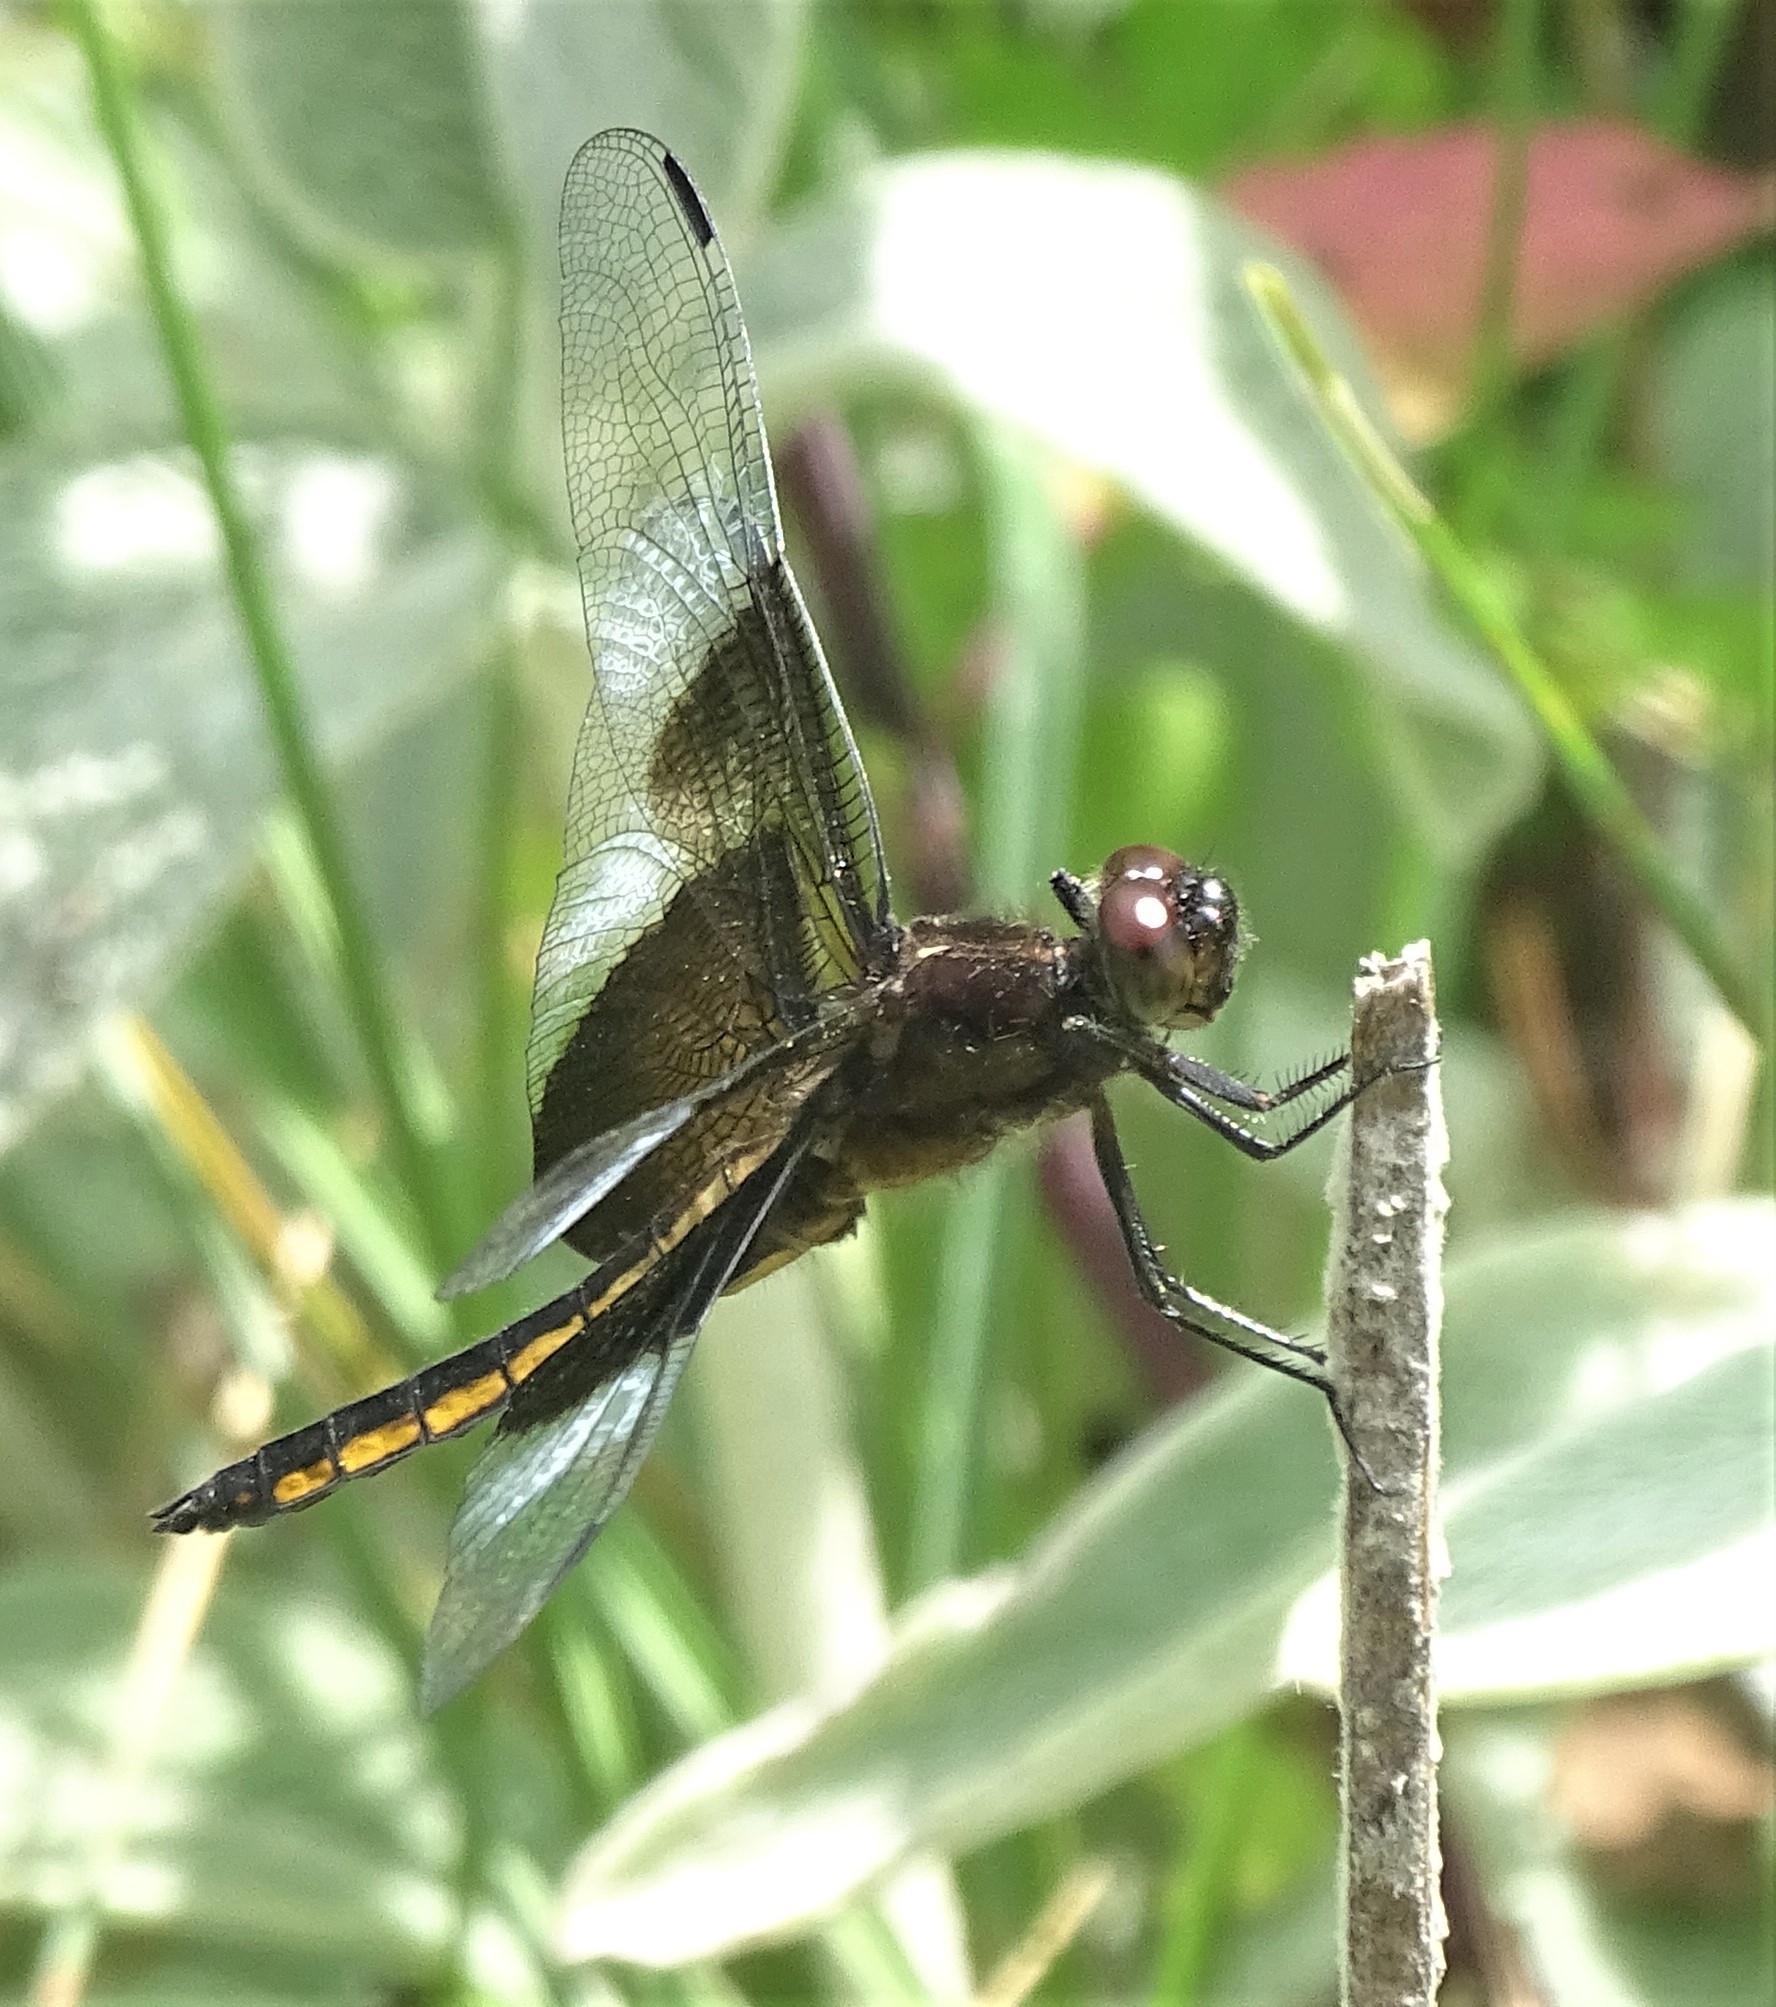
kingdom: Animalia
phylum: Arthropoda
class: Insecta
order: Odonata
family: Libellulidae
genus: Libellula
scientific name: Libellula luctuosa
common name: Widow skimmer
